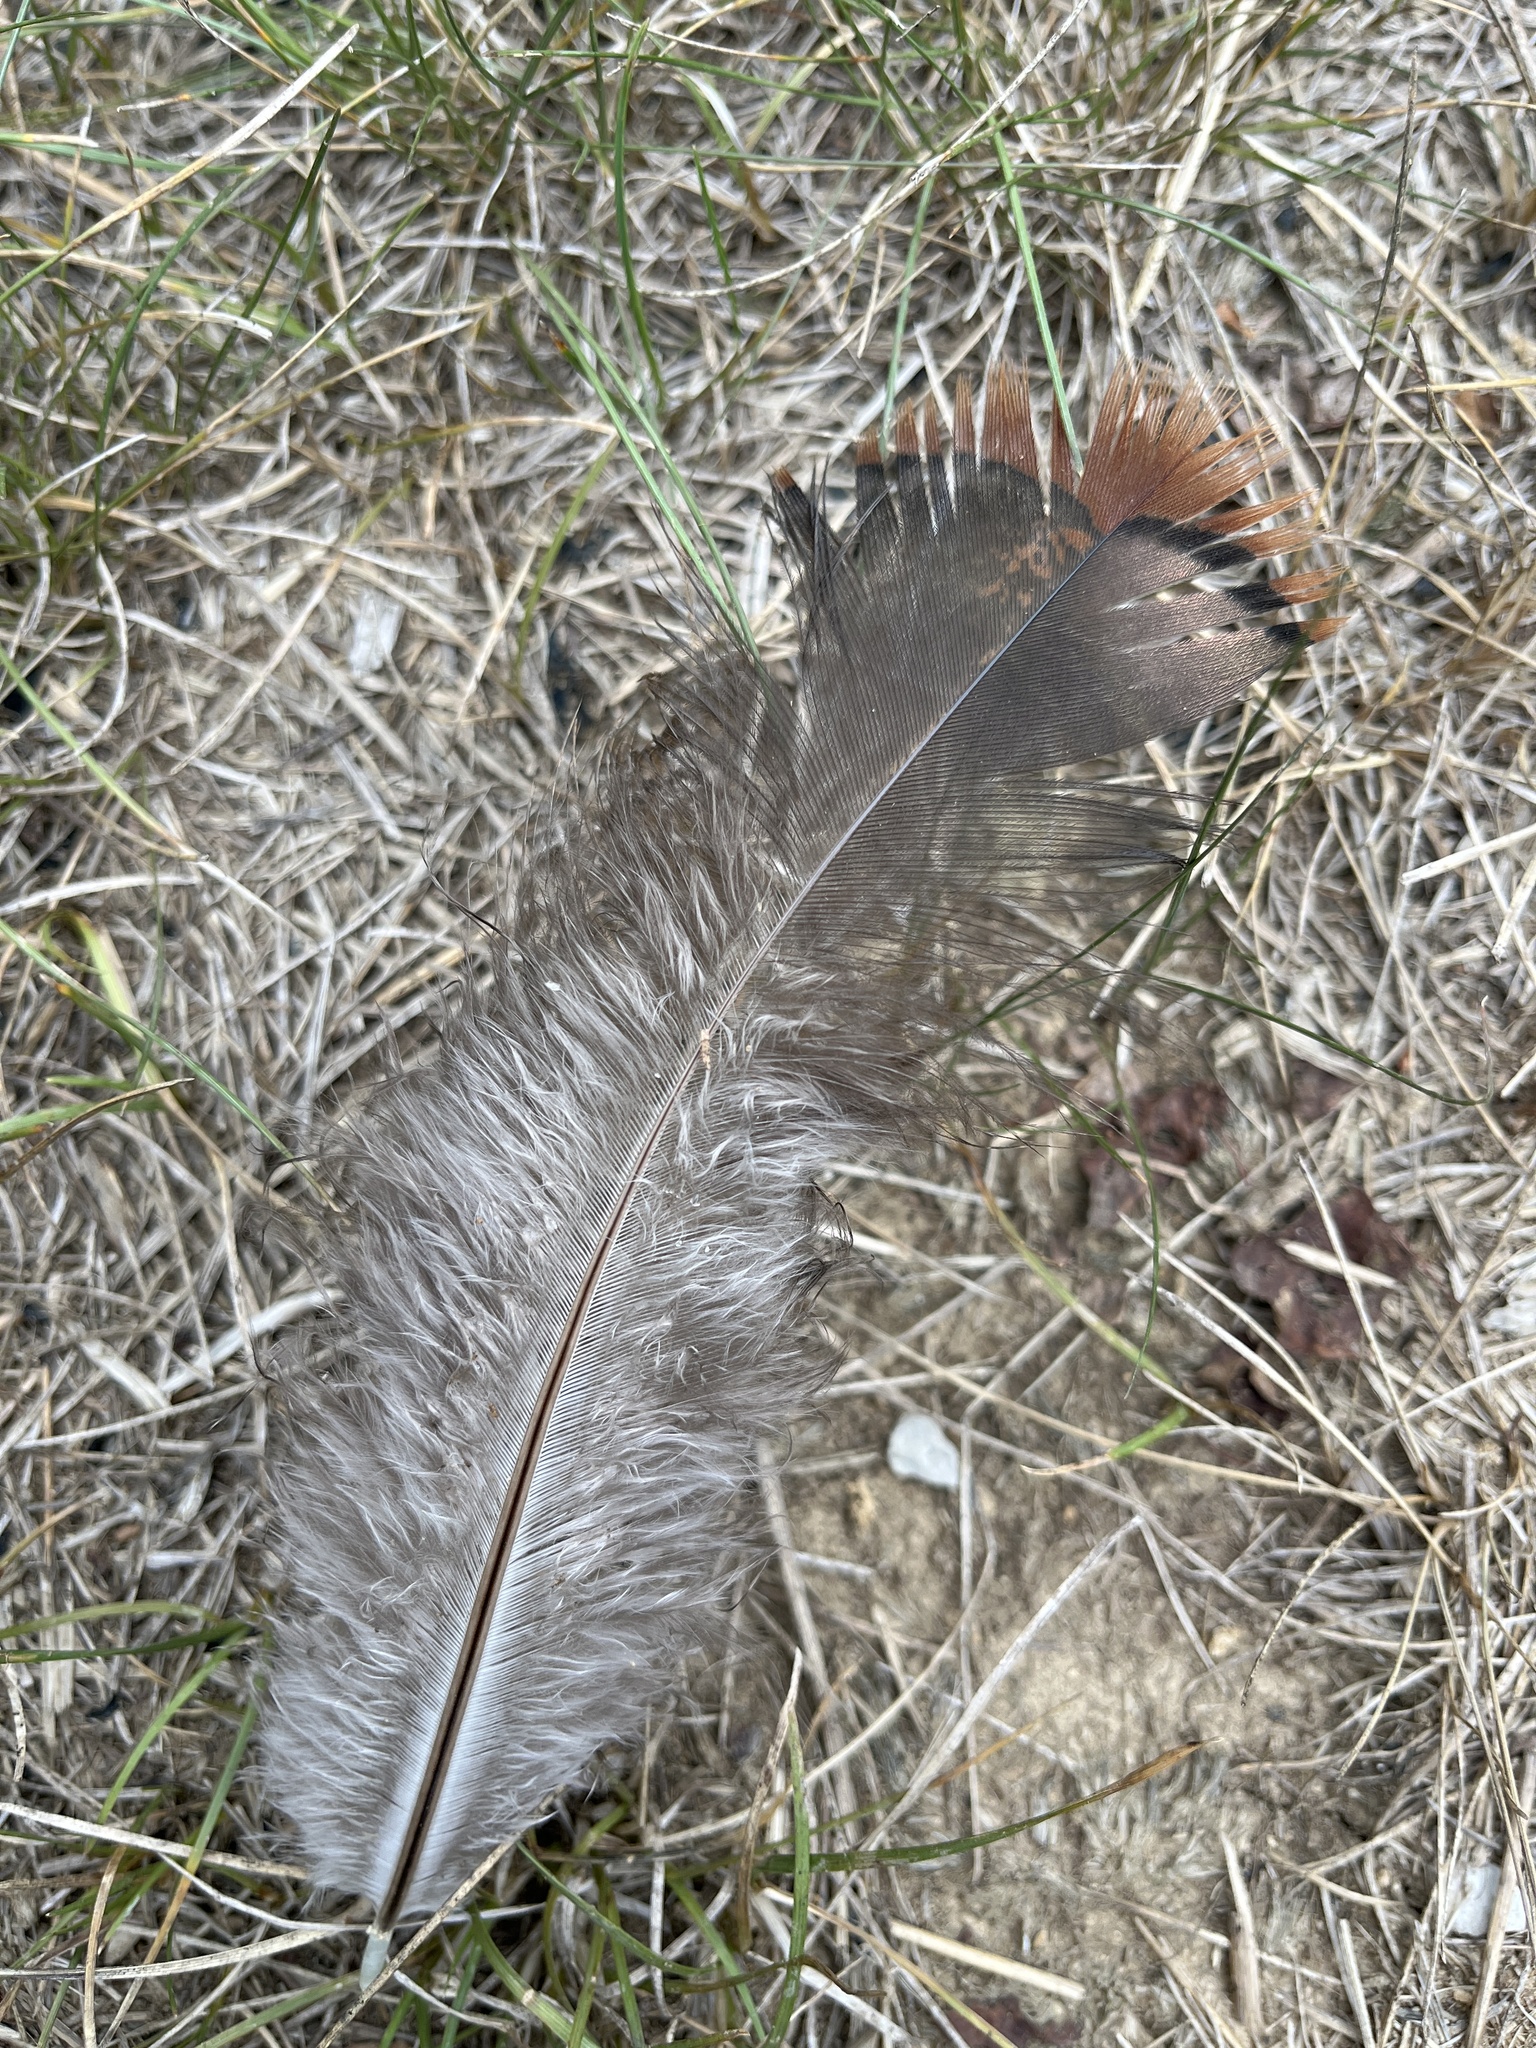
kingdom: Animalia
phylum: Chordata
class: Aves
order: Galliformes
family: Phasianidae
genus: Meleagris
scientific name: Meleagris gallopavo
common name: Wild turkey
